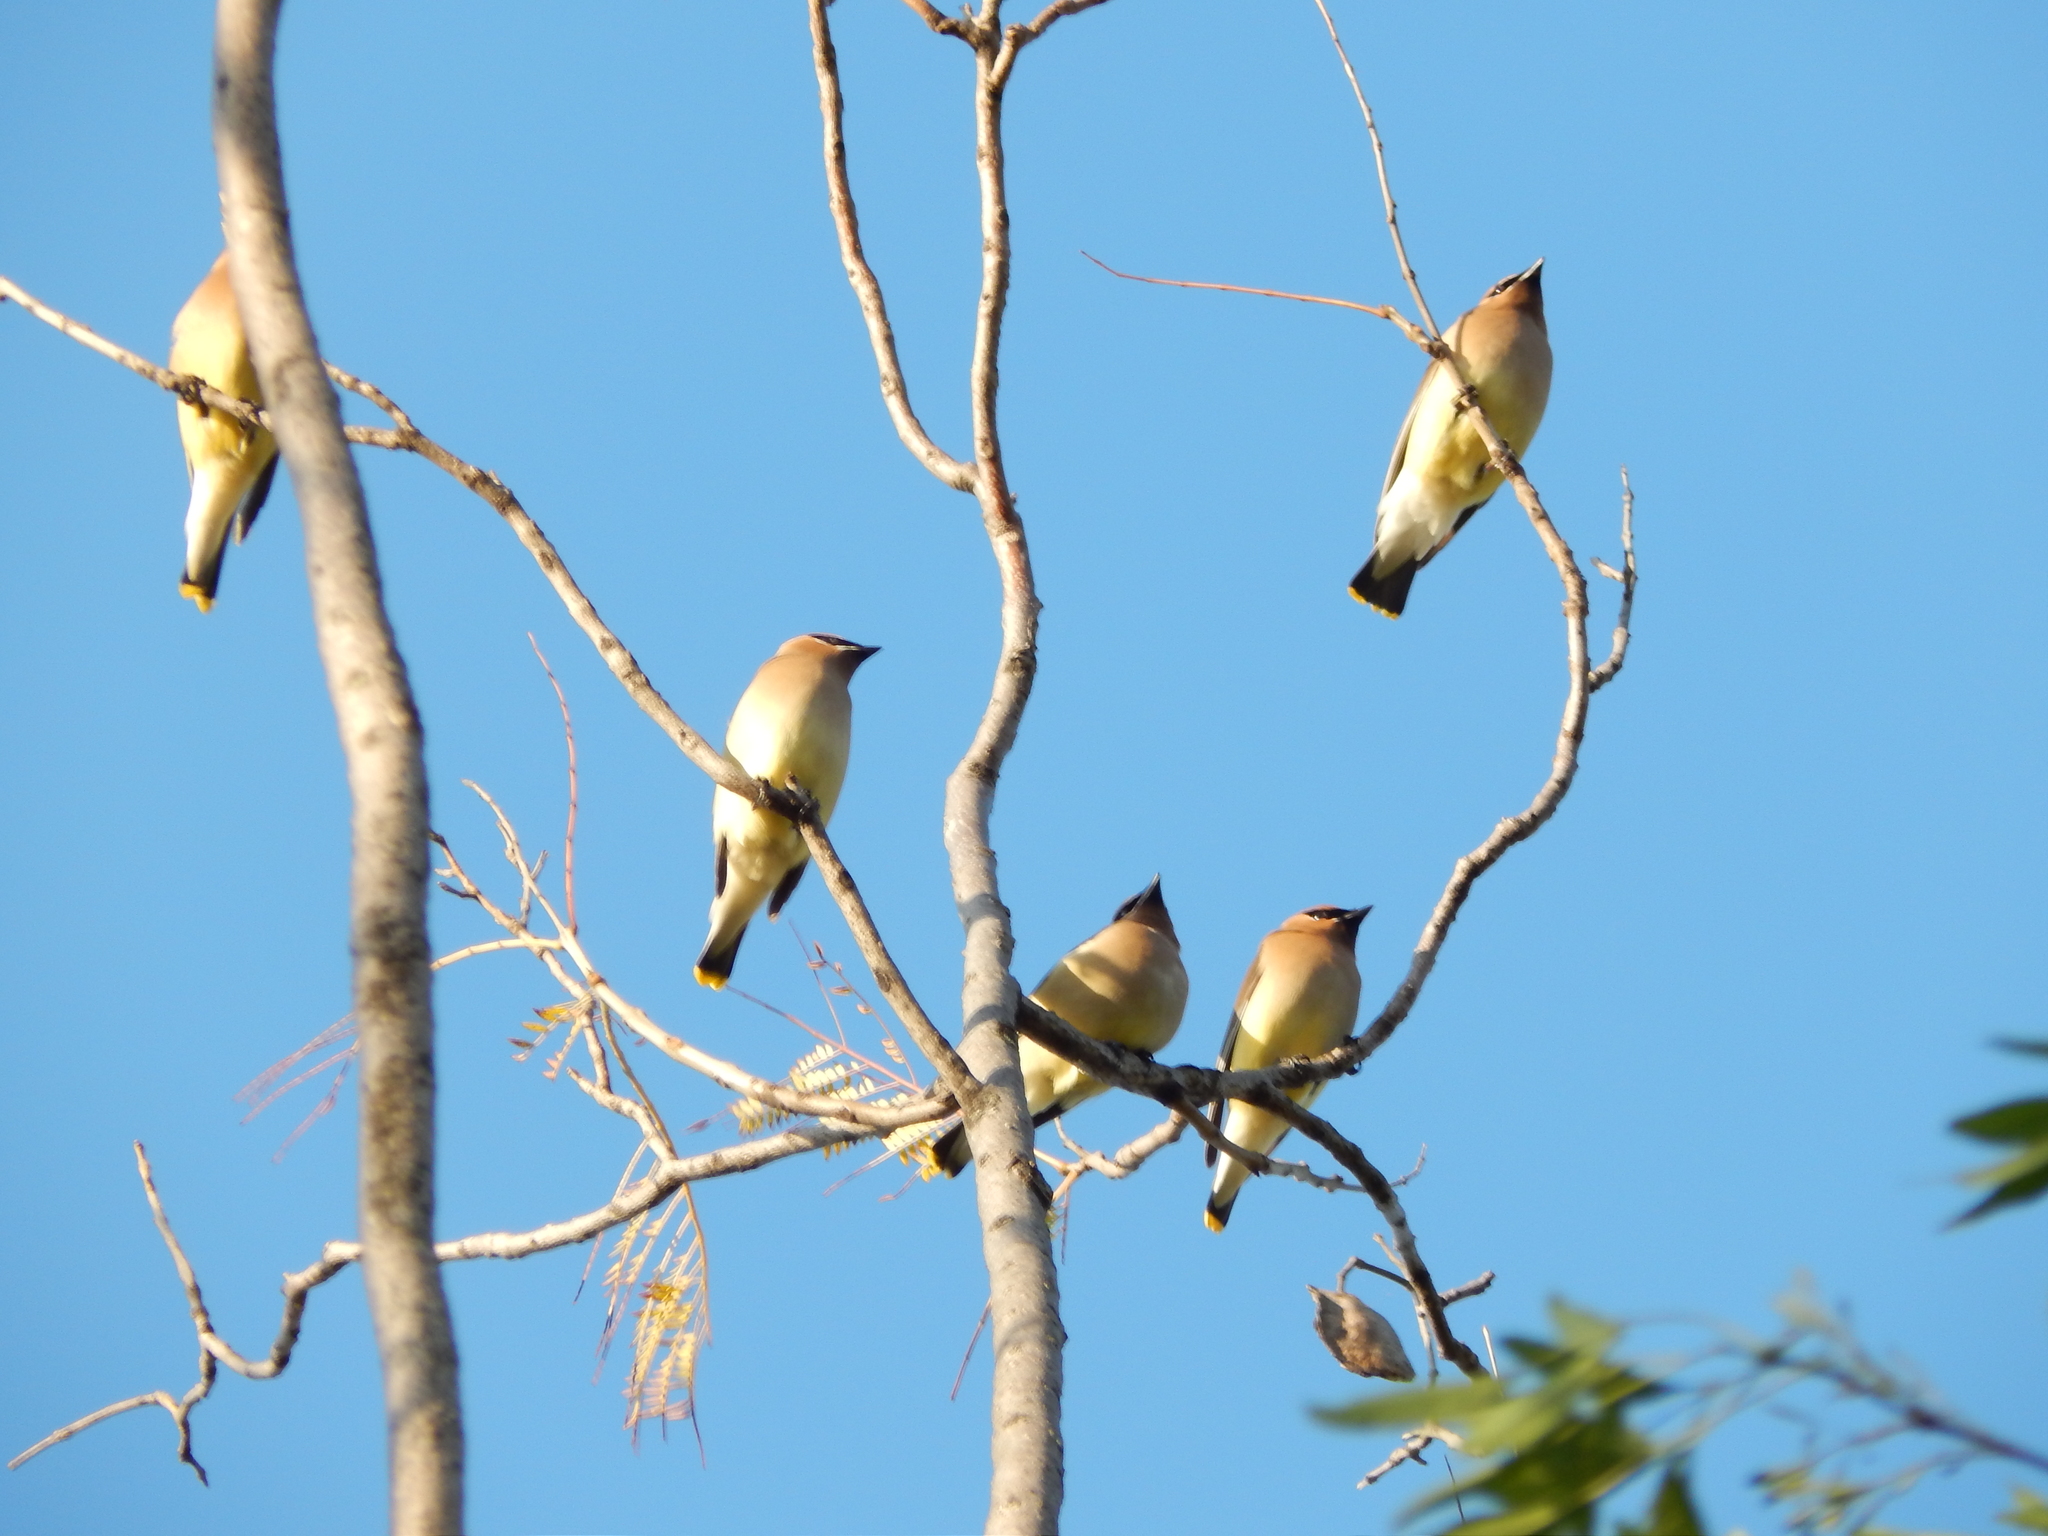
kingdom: Animalia
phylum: Chordata
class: Aves
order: Passeriformes
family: Bombycillidae
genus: Bombycilla
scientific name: Bombycilla cedrorum
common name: Cedar waxwing
